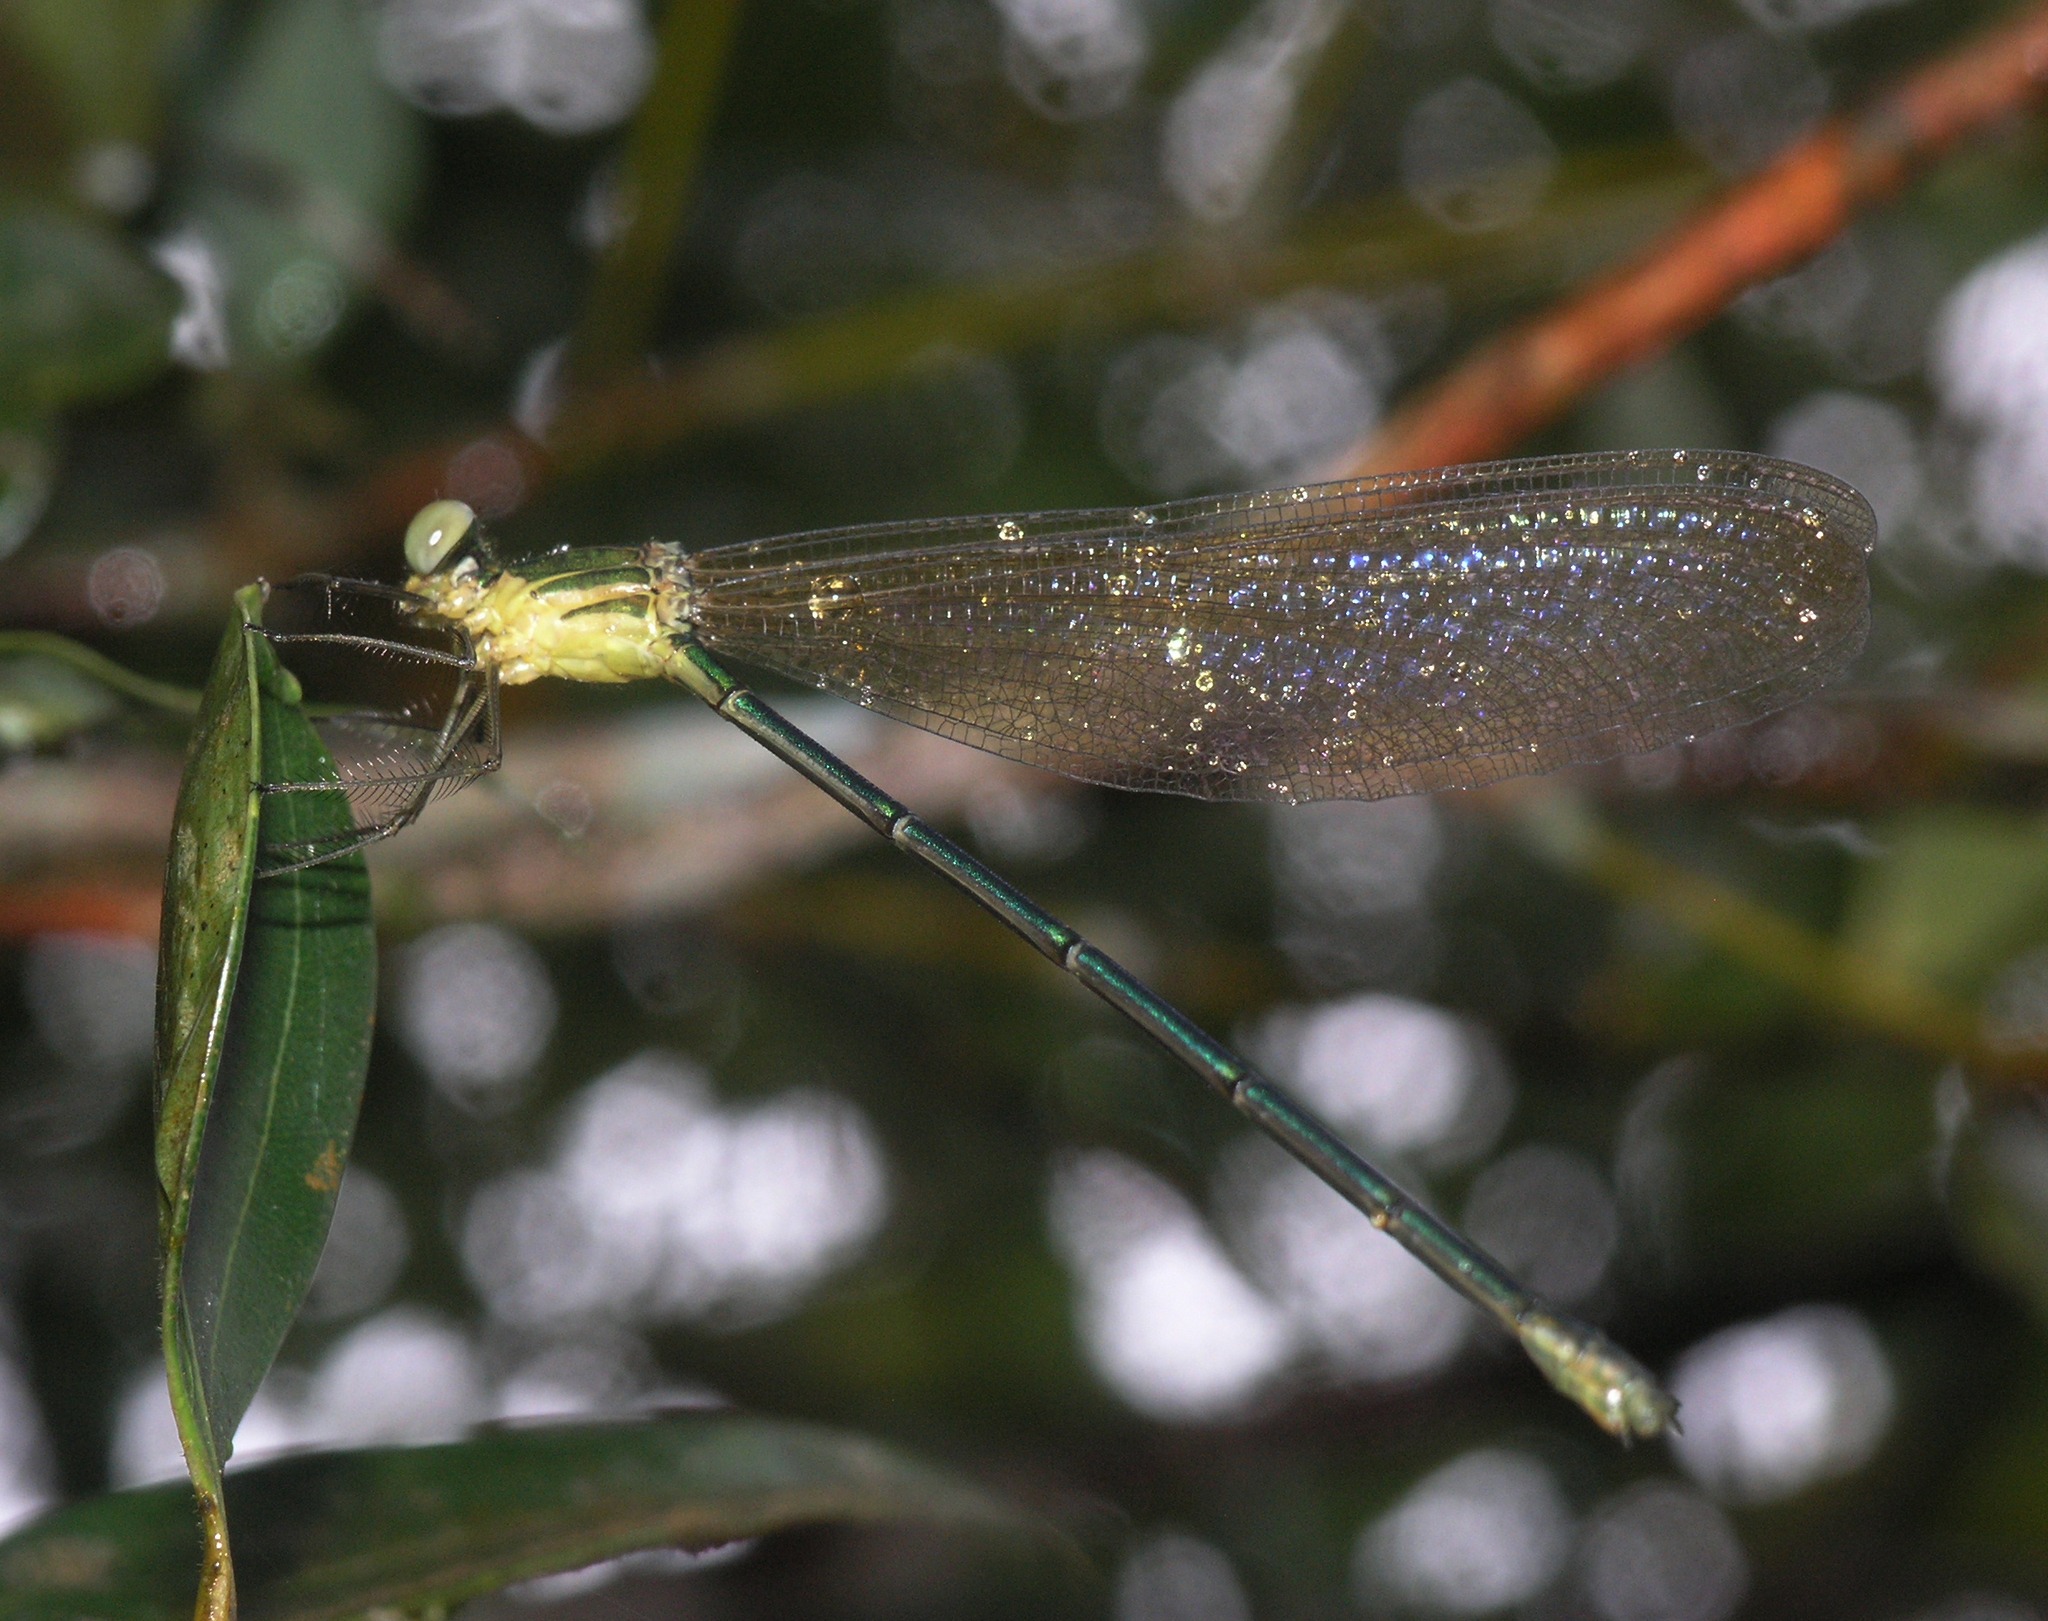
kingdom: Animalia
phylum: Arthropoda
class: Insecta
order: Odonata
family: Calopterygidae
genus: Vestalis
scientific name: Vestalis gracilis
